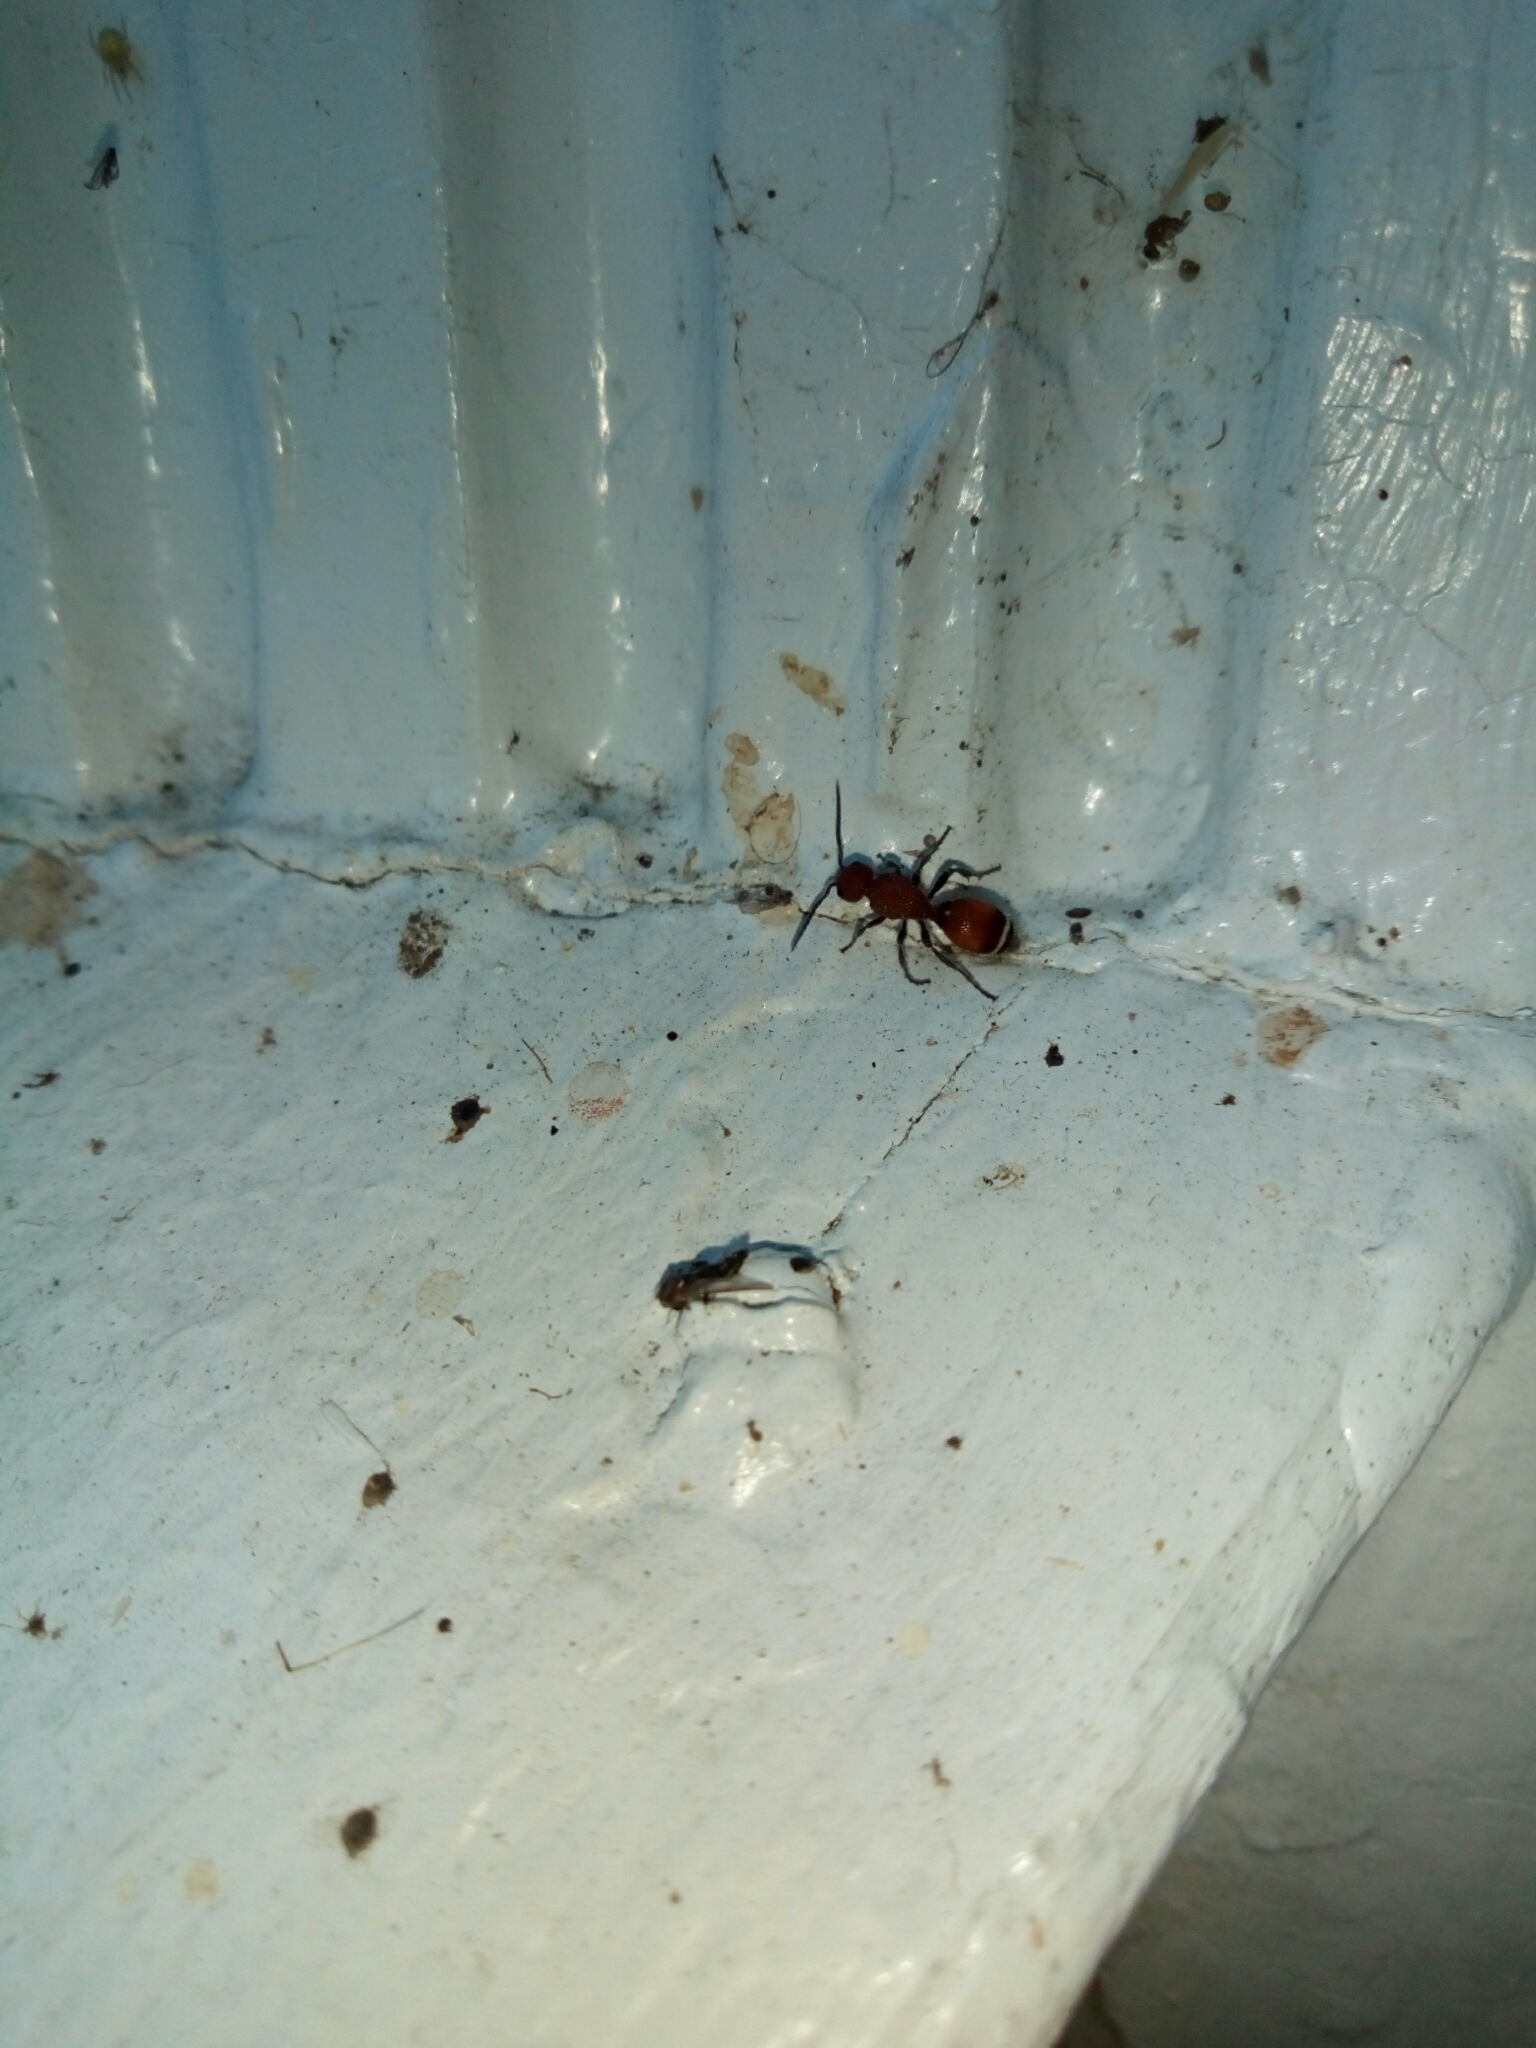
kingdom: Animalia
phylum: Arthropoda
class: Insecta
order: Hymenoptera
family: Mutillidae
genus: Sphaeropthalma
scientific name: Sphaeropthalma
